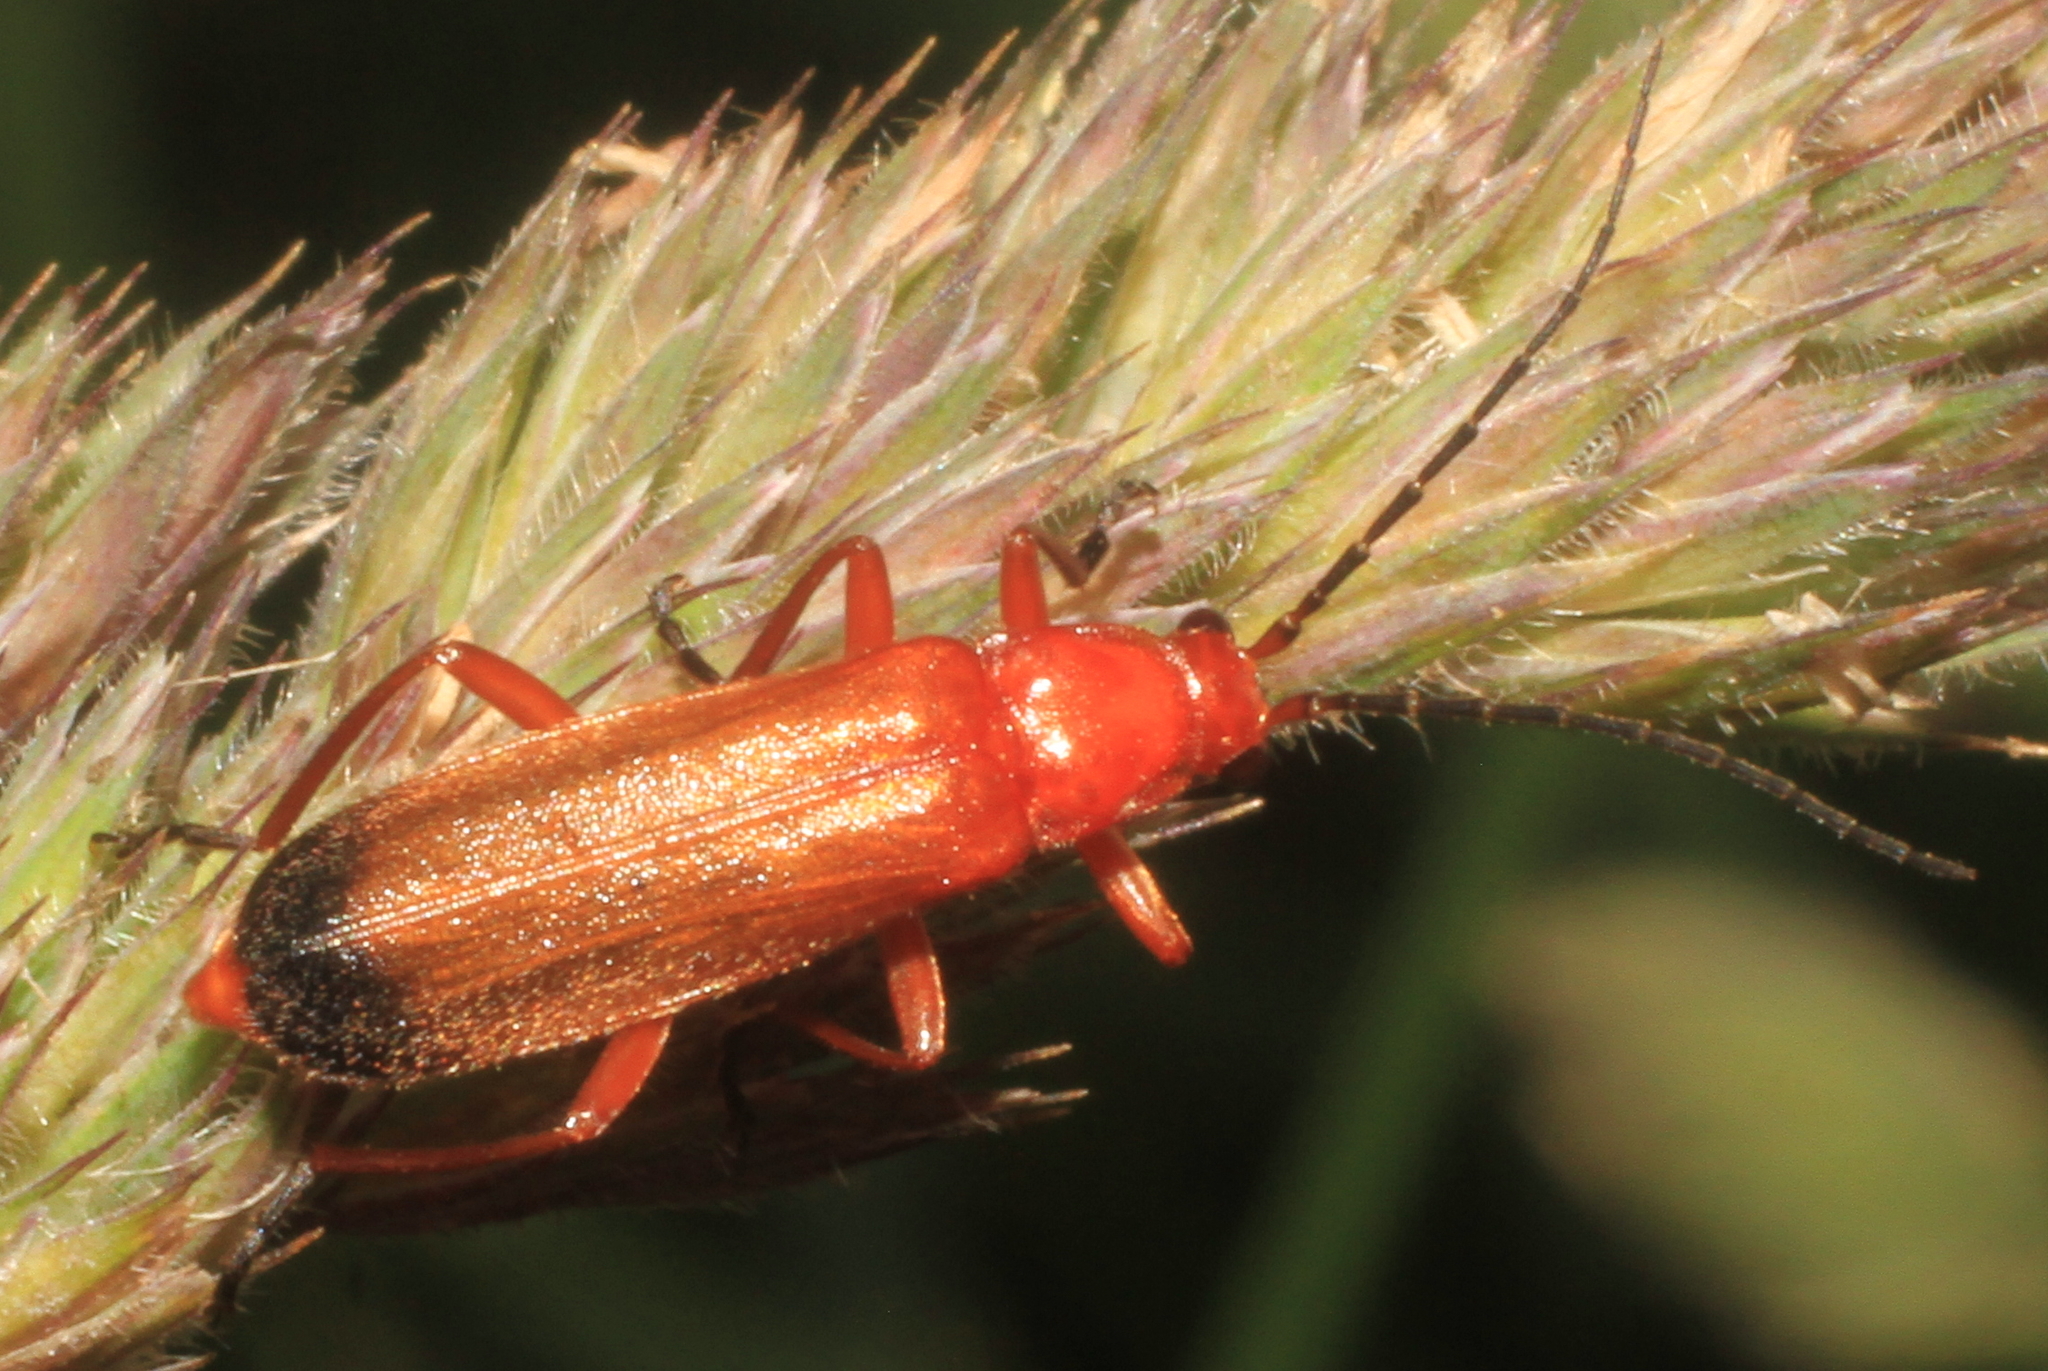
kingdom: Animalia
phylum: Arthropoda
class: Insecta
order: Coleoptera
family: Cantharidae
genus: Rhagonycha
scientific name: Rhagonycha fulva
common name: Common red soldier beetle
